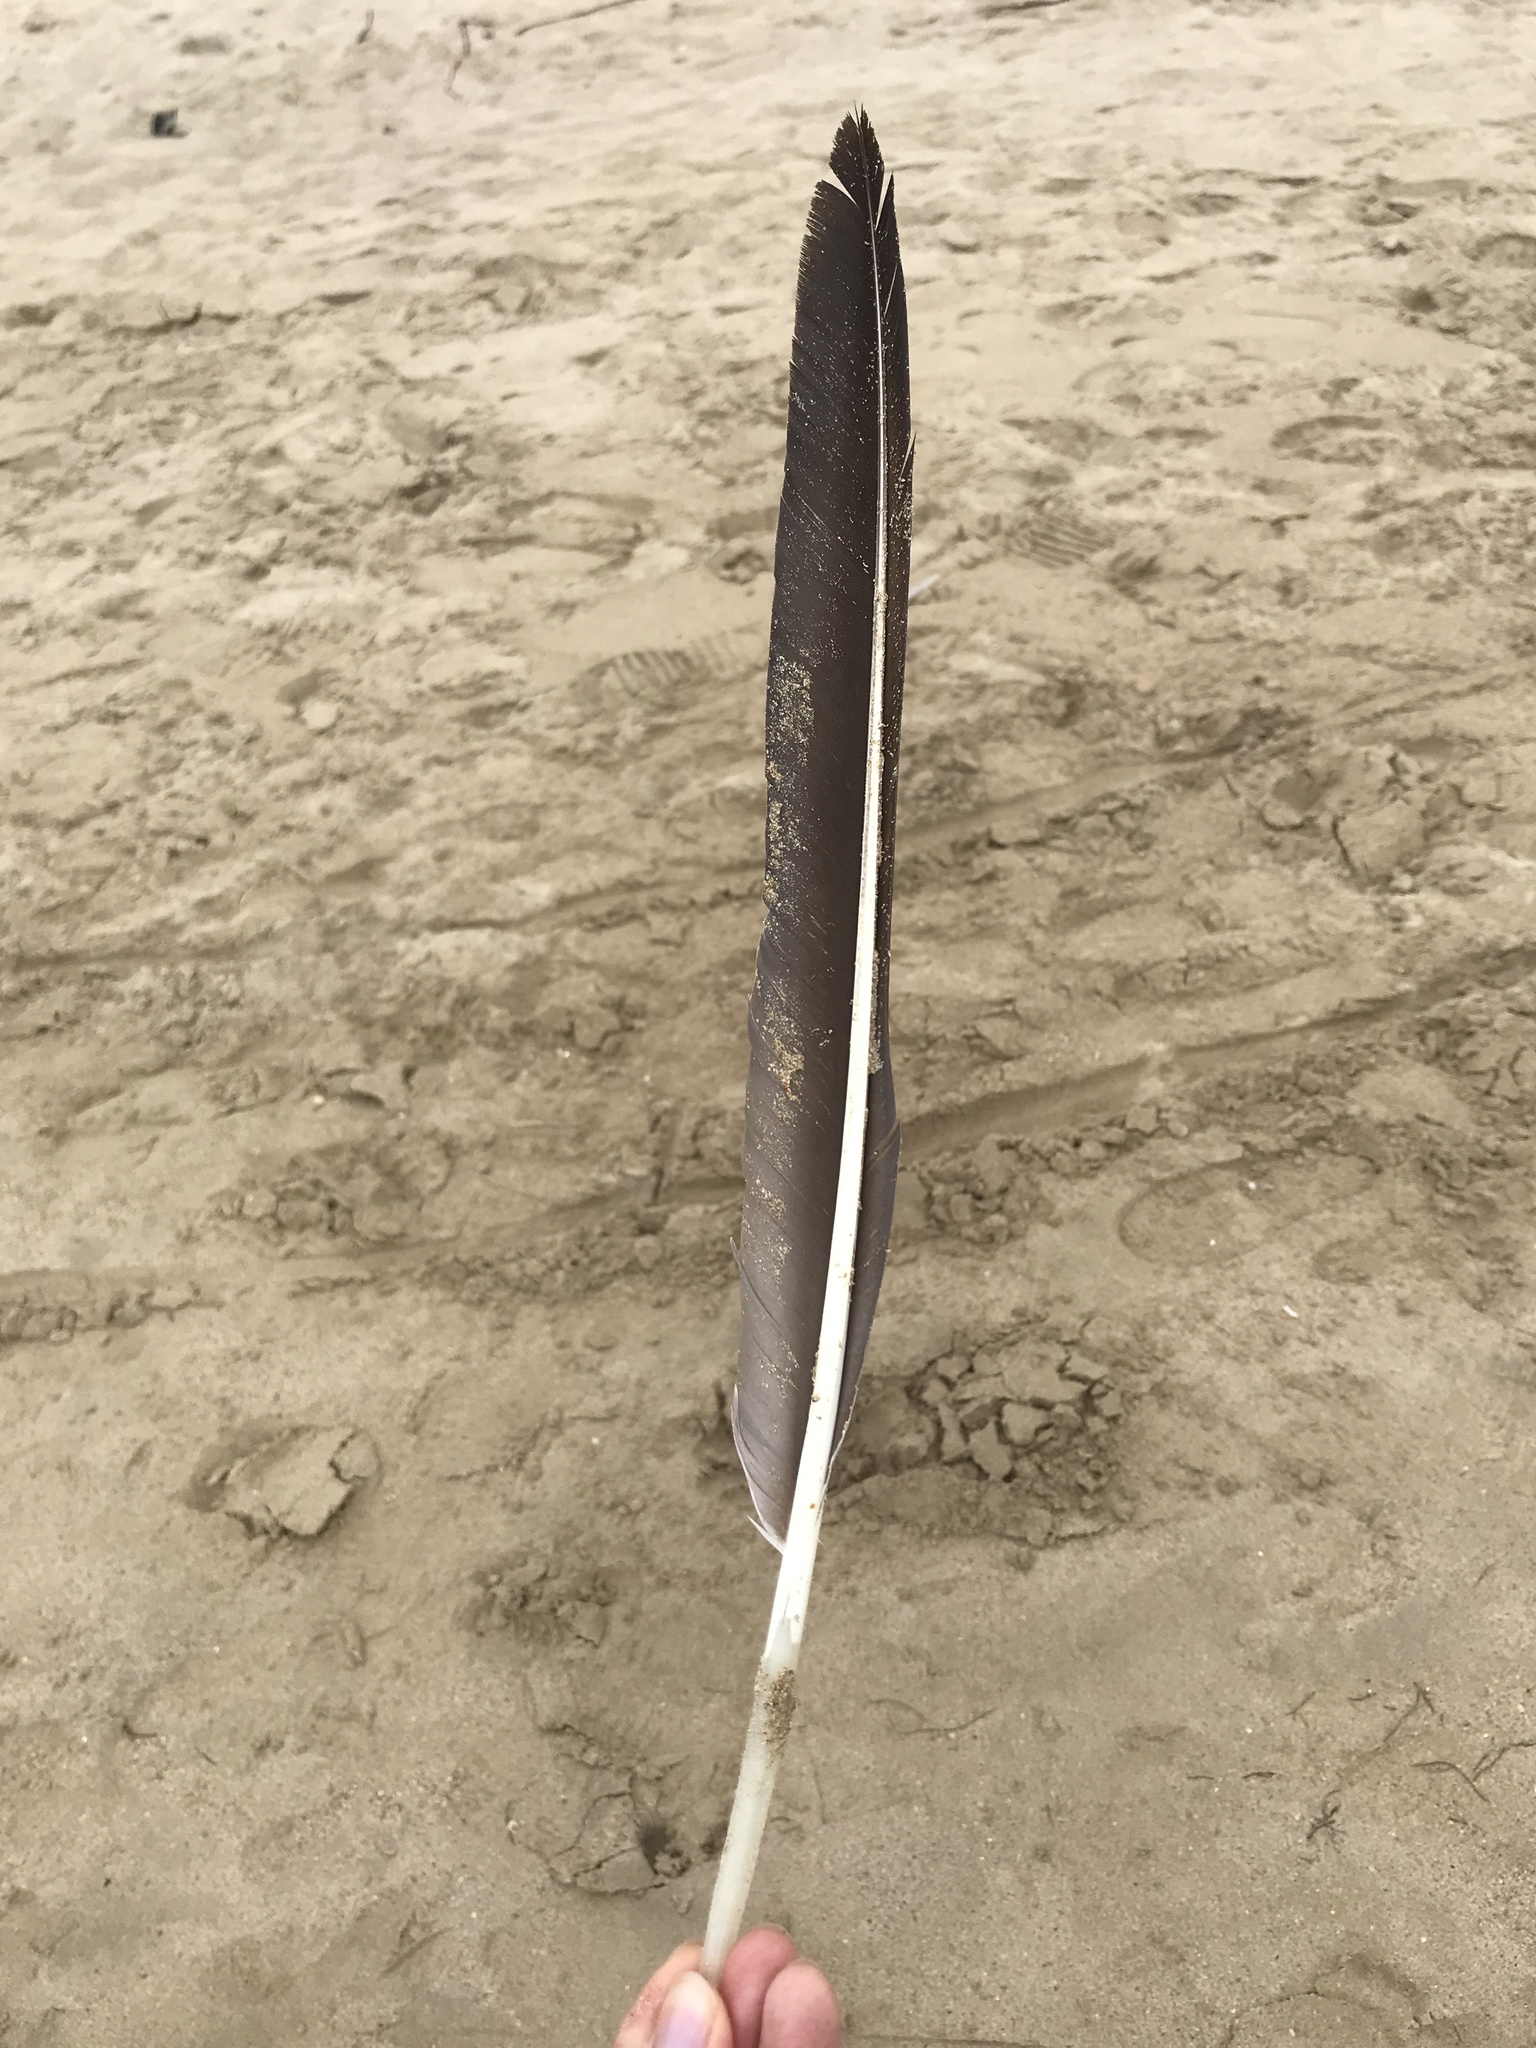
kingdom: Animalia
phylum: Chordata
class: Aves
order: Pelecaniformes
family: Pelecanidae
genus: Pelecanus
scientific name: Pelecanus occidentalis
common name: Brown pelican
